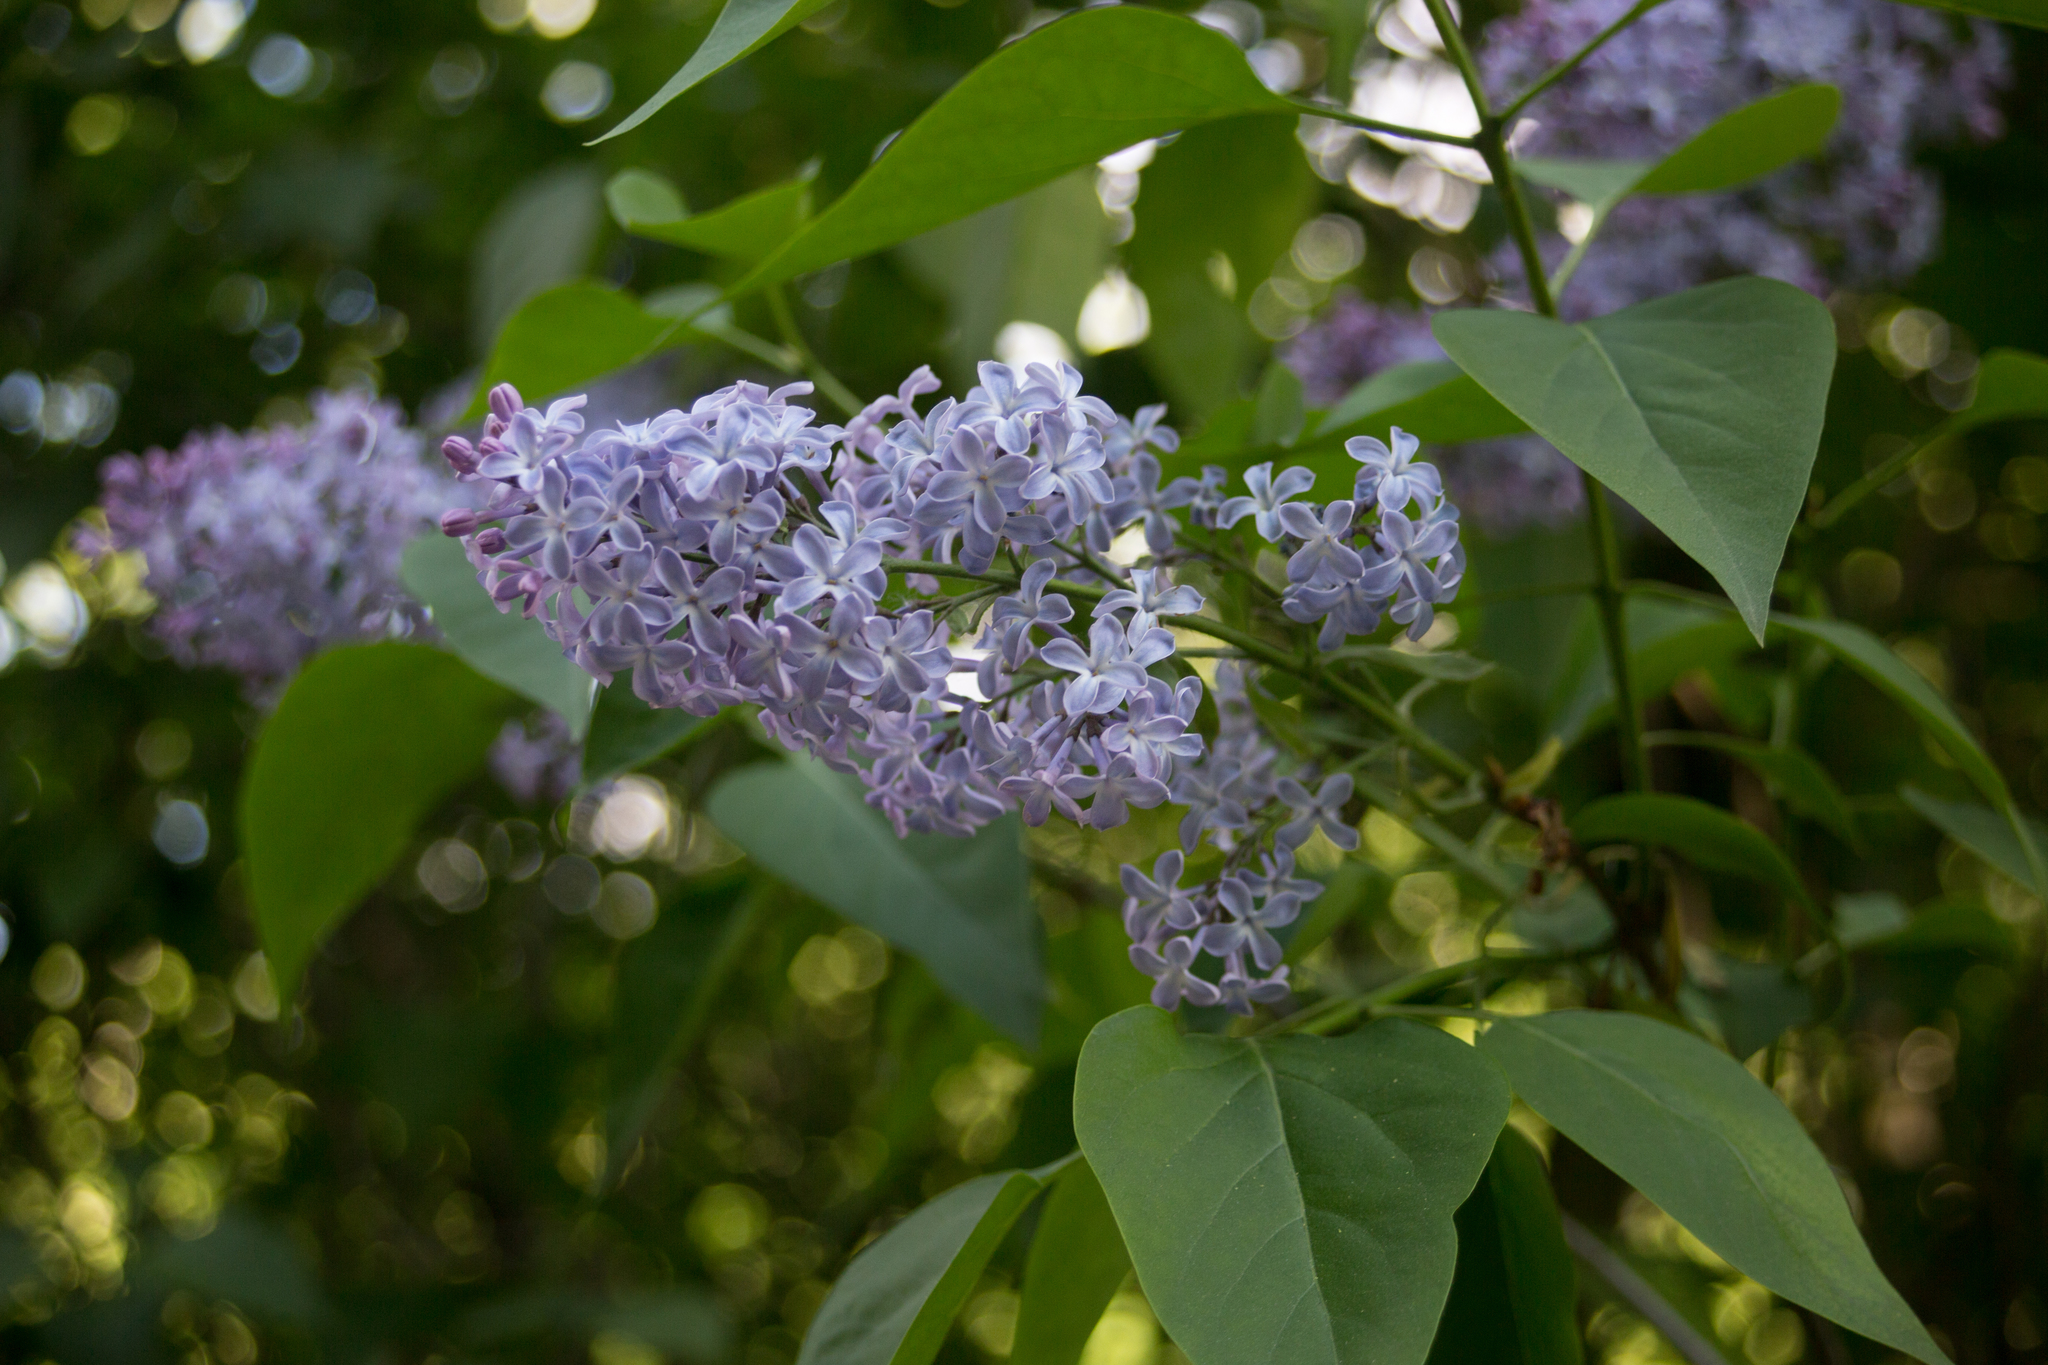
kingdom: Plantae
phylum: Tracheophyta
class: Magnoliopsida
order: Lamiales
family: Oleaceae
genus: Syringa
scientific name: Syringa vulgaris
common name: Common lilac
